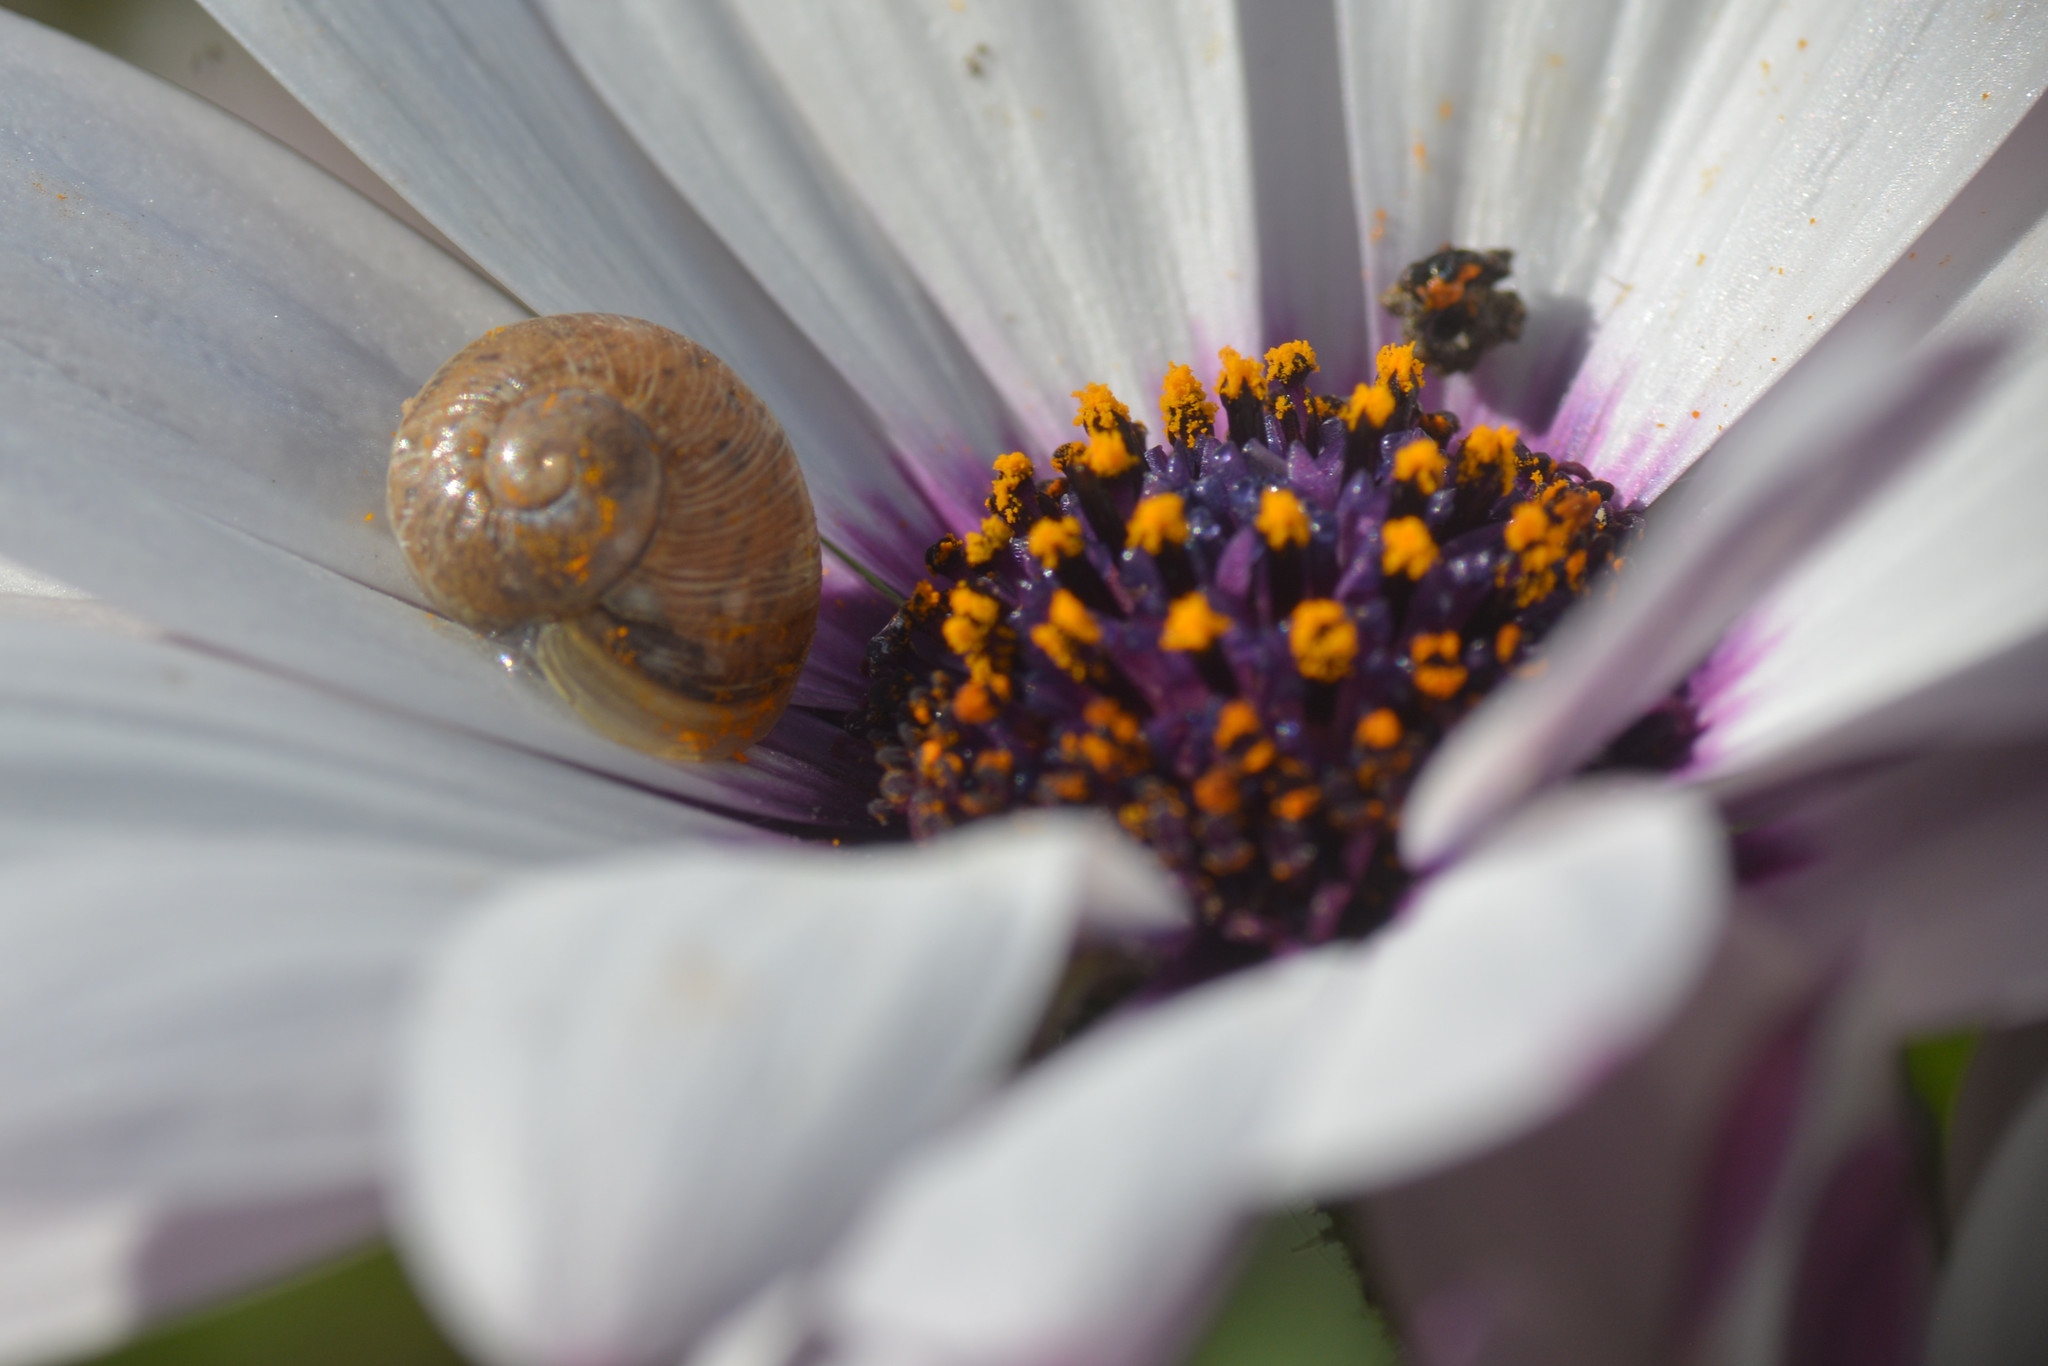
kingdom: Animalia
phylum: Mollusca
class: Gastropoda
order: Stylommatophora
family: Helicidae
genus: Cornu
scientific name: Cornu aspersum
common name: Brown garden snail
